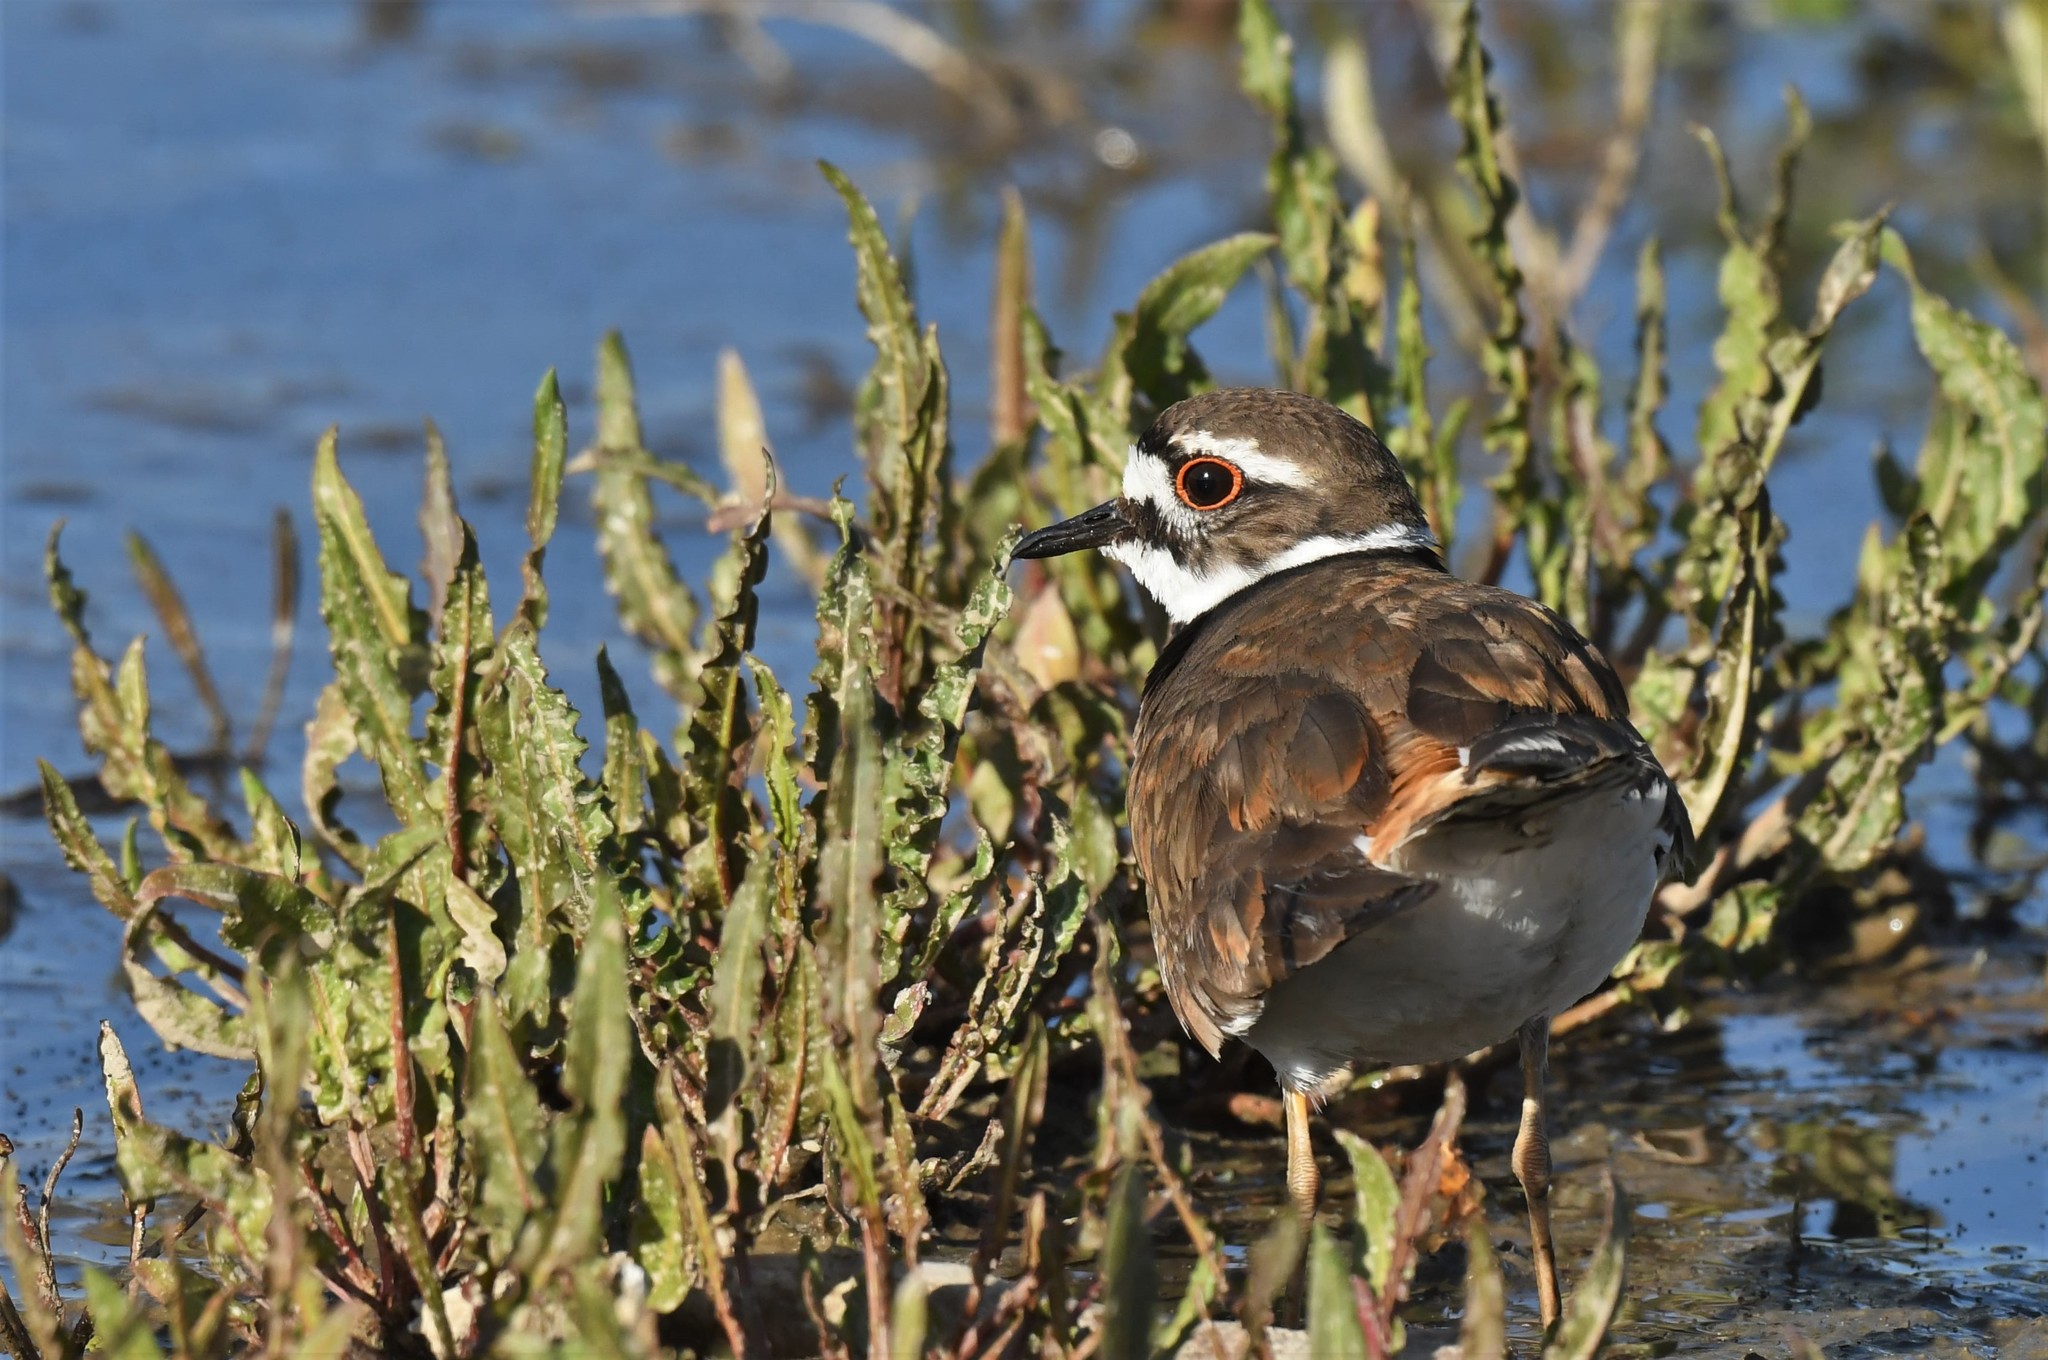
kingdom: Animalia
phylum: Chordata
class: Aves
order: Charadriiformes
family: Charadriidae
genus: Charadrius
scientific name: Charadrius vociferus
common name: Killdeer
